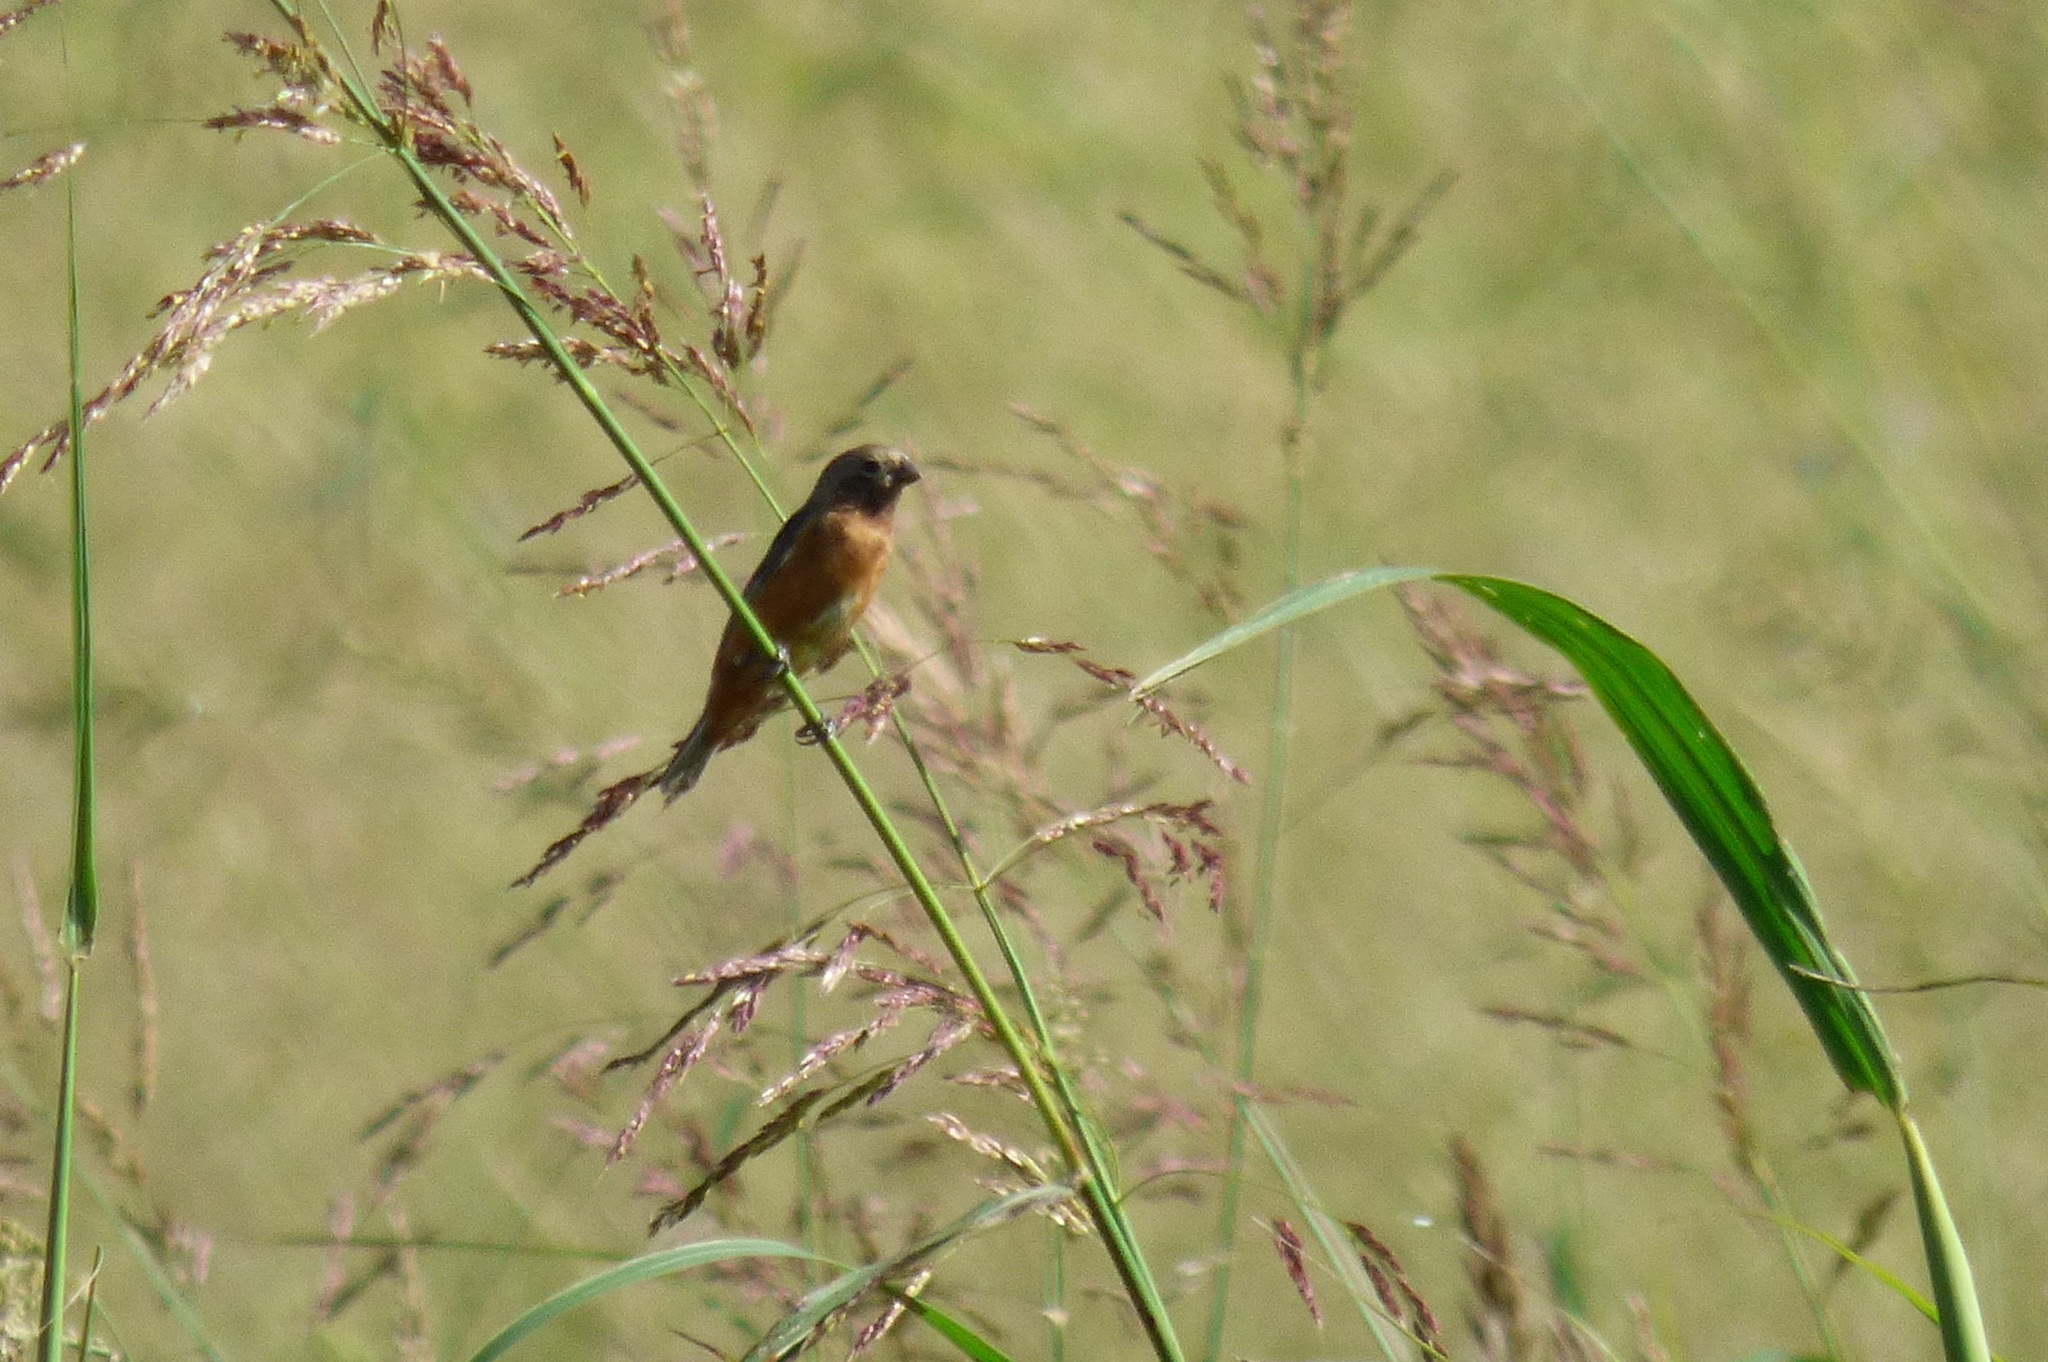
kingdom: Animalia
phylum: Chordata
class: Aves
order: Passeriformes
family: Thraupidae
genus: Sporophila
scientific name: Sporophila ruficollis
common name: Dark-throated seedeater
